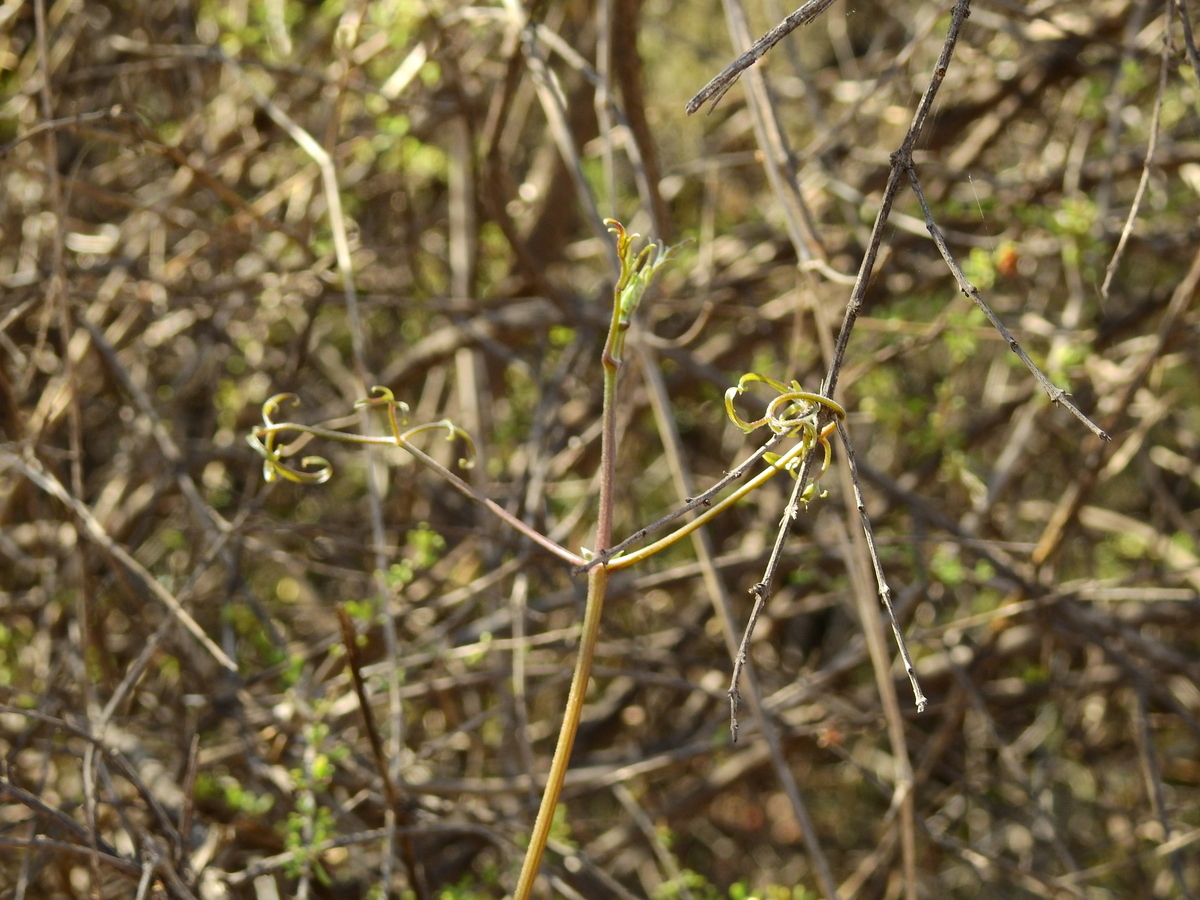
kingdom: Plantae
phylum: Tracheophyta
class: Magnoliopsida
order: Ranunculales
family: Ranunculaceae
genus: Clematis
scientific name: Clematis montevidensis
